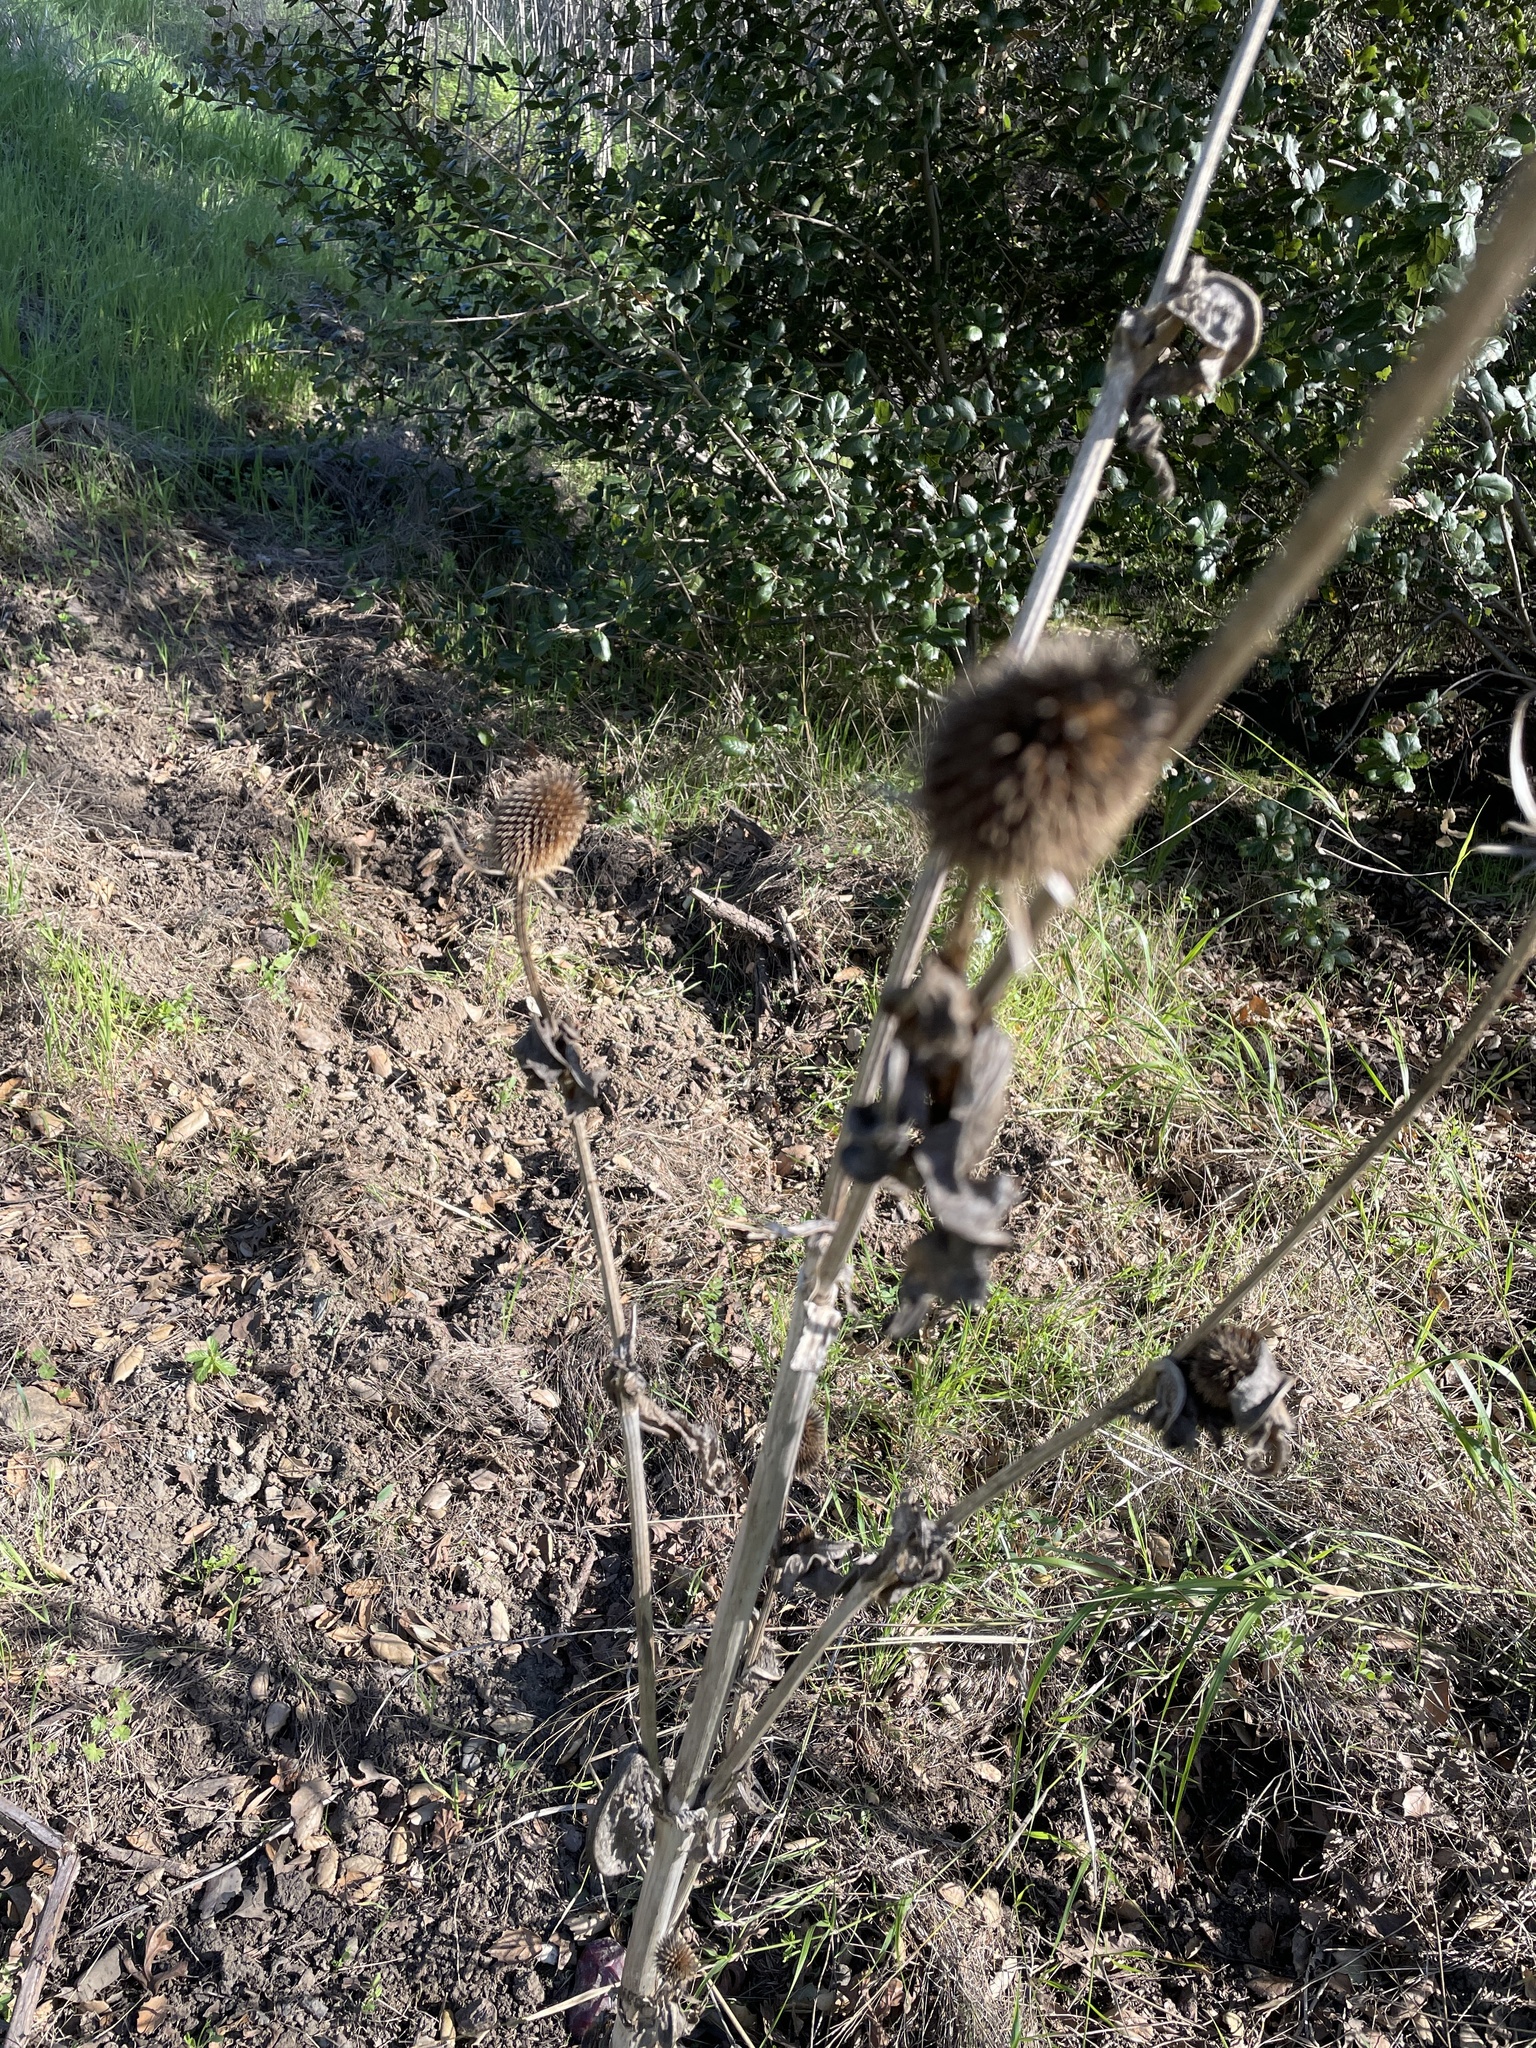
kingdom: Plantae
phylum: Tracheophyta
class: Magnoliopsida
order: Dipsacales
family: Caprifoliaceae
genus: Dipsacus
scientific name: Dipsacus sativus
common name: Fuller's teasel
